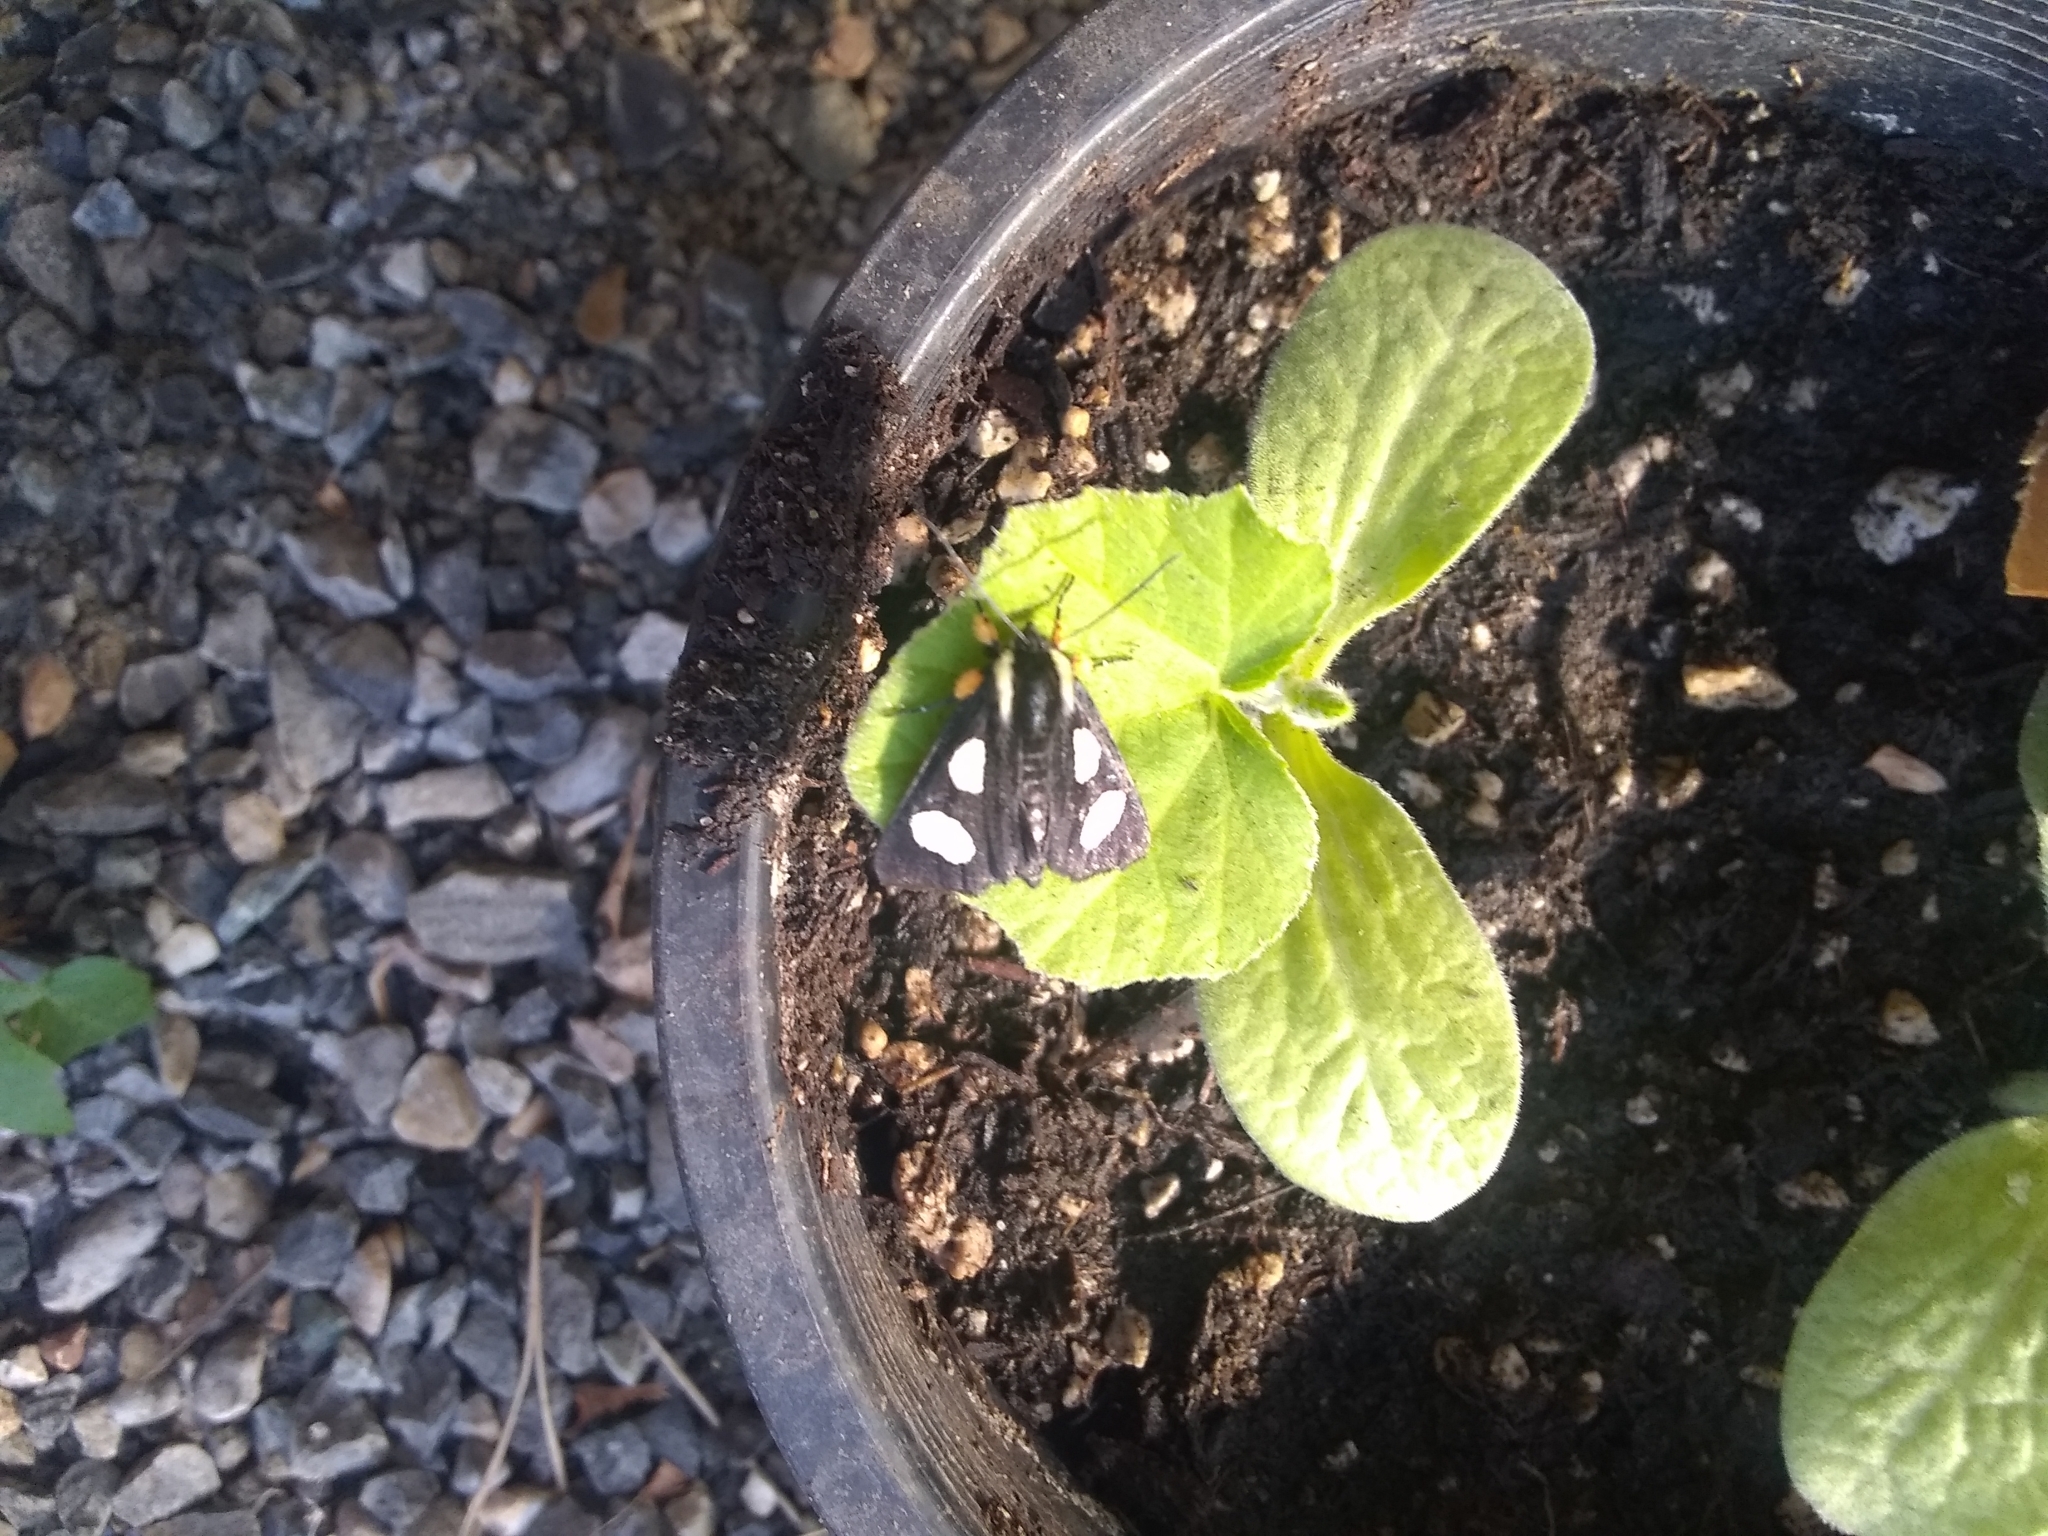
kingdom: Animalia
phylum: Arthropoda
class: Insecta
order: Lepidoptera
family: Noctuidae
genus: Alypia
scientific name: Alypia langtonii
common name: Fireweed caterpillar
